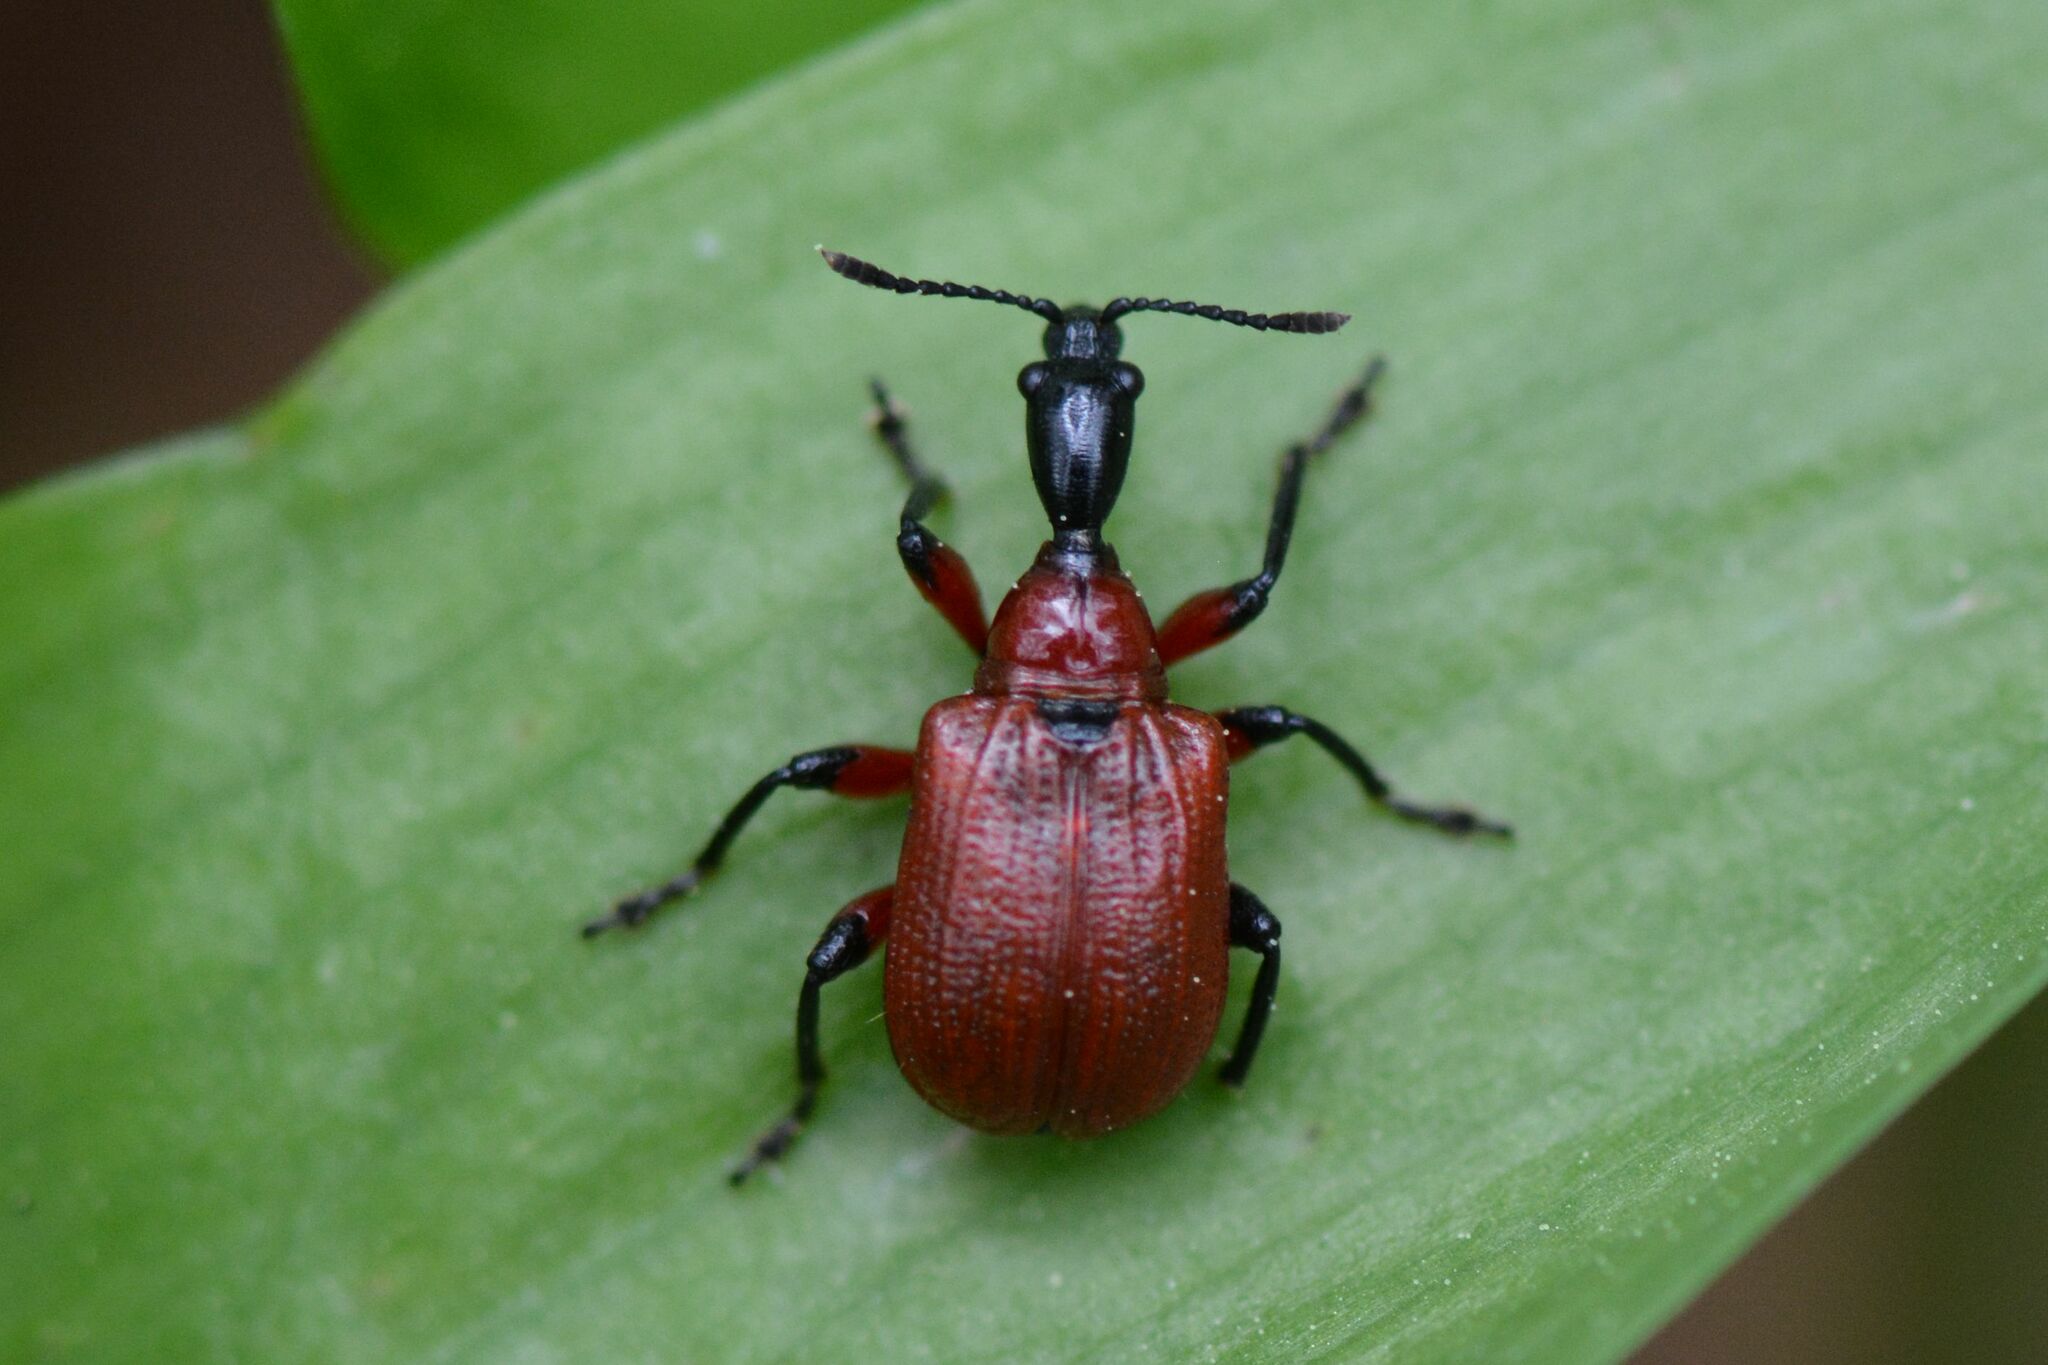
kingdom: Animalia
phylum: Arthropoda
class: Insecta
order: Coleoptera
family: Attelabidae
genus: Apoderus
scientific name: Apoderus coryli
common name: Hazel leaf roller
